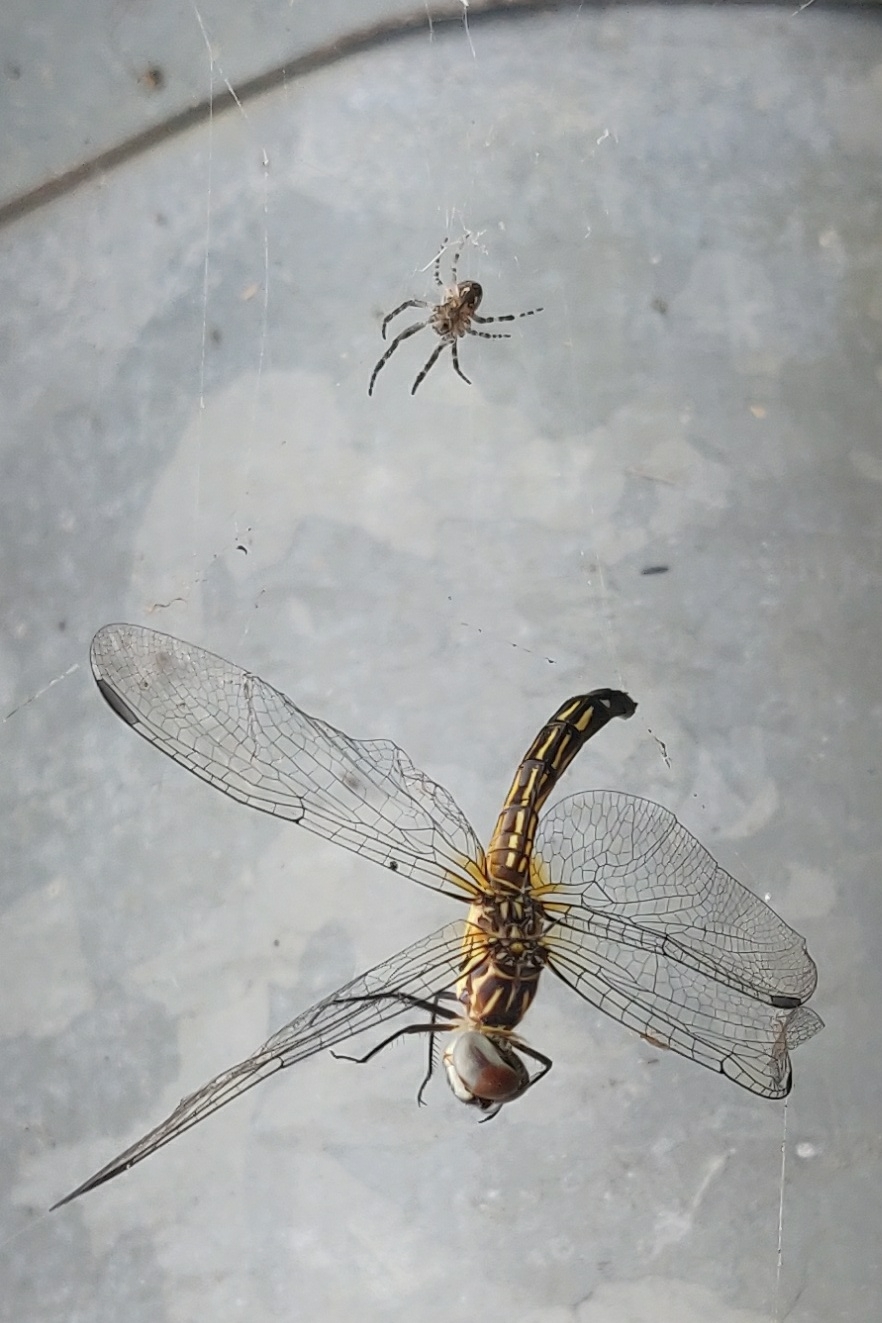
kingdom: Animalia
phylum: Arthropoda
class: Insecta
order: Odonata
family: Libellulidae
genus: Pachydiplax
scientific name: Pachydiplax longipennis
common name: Blue dasher
